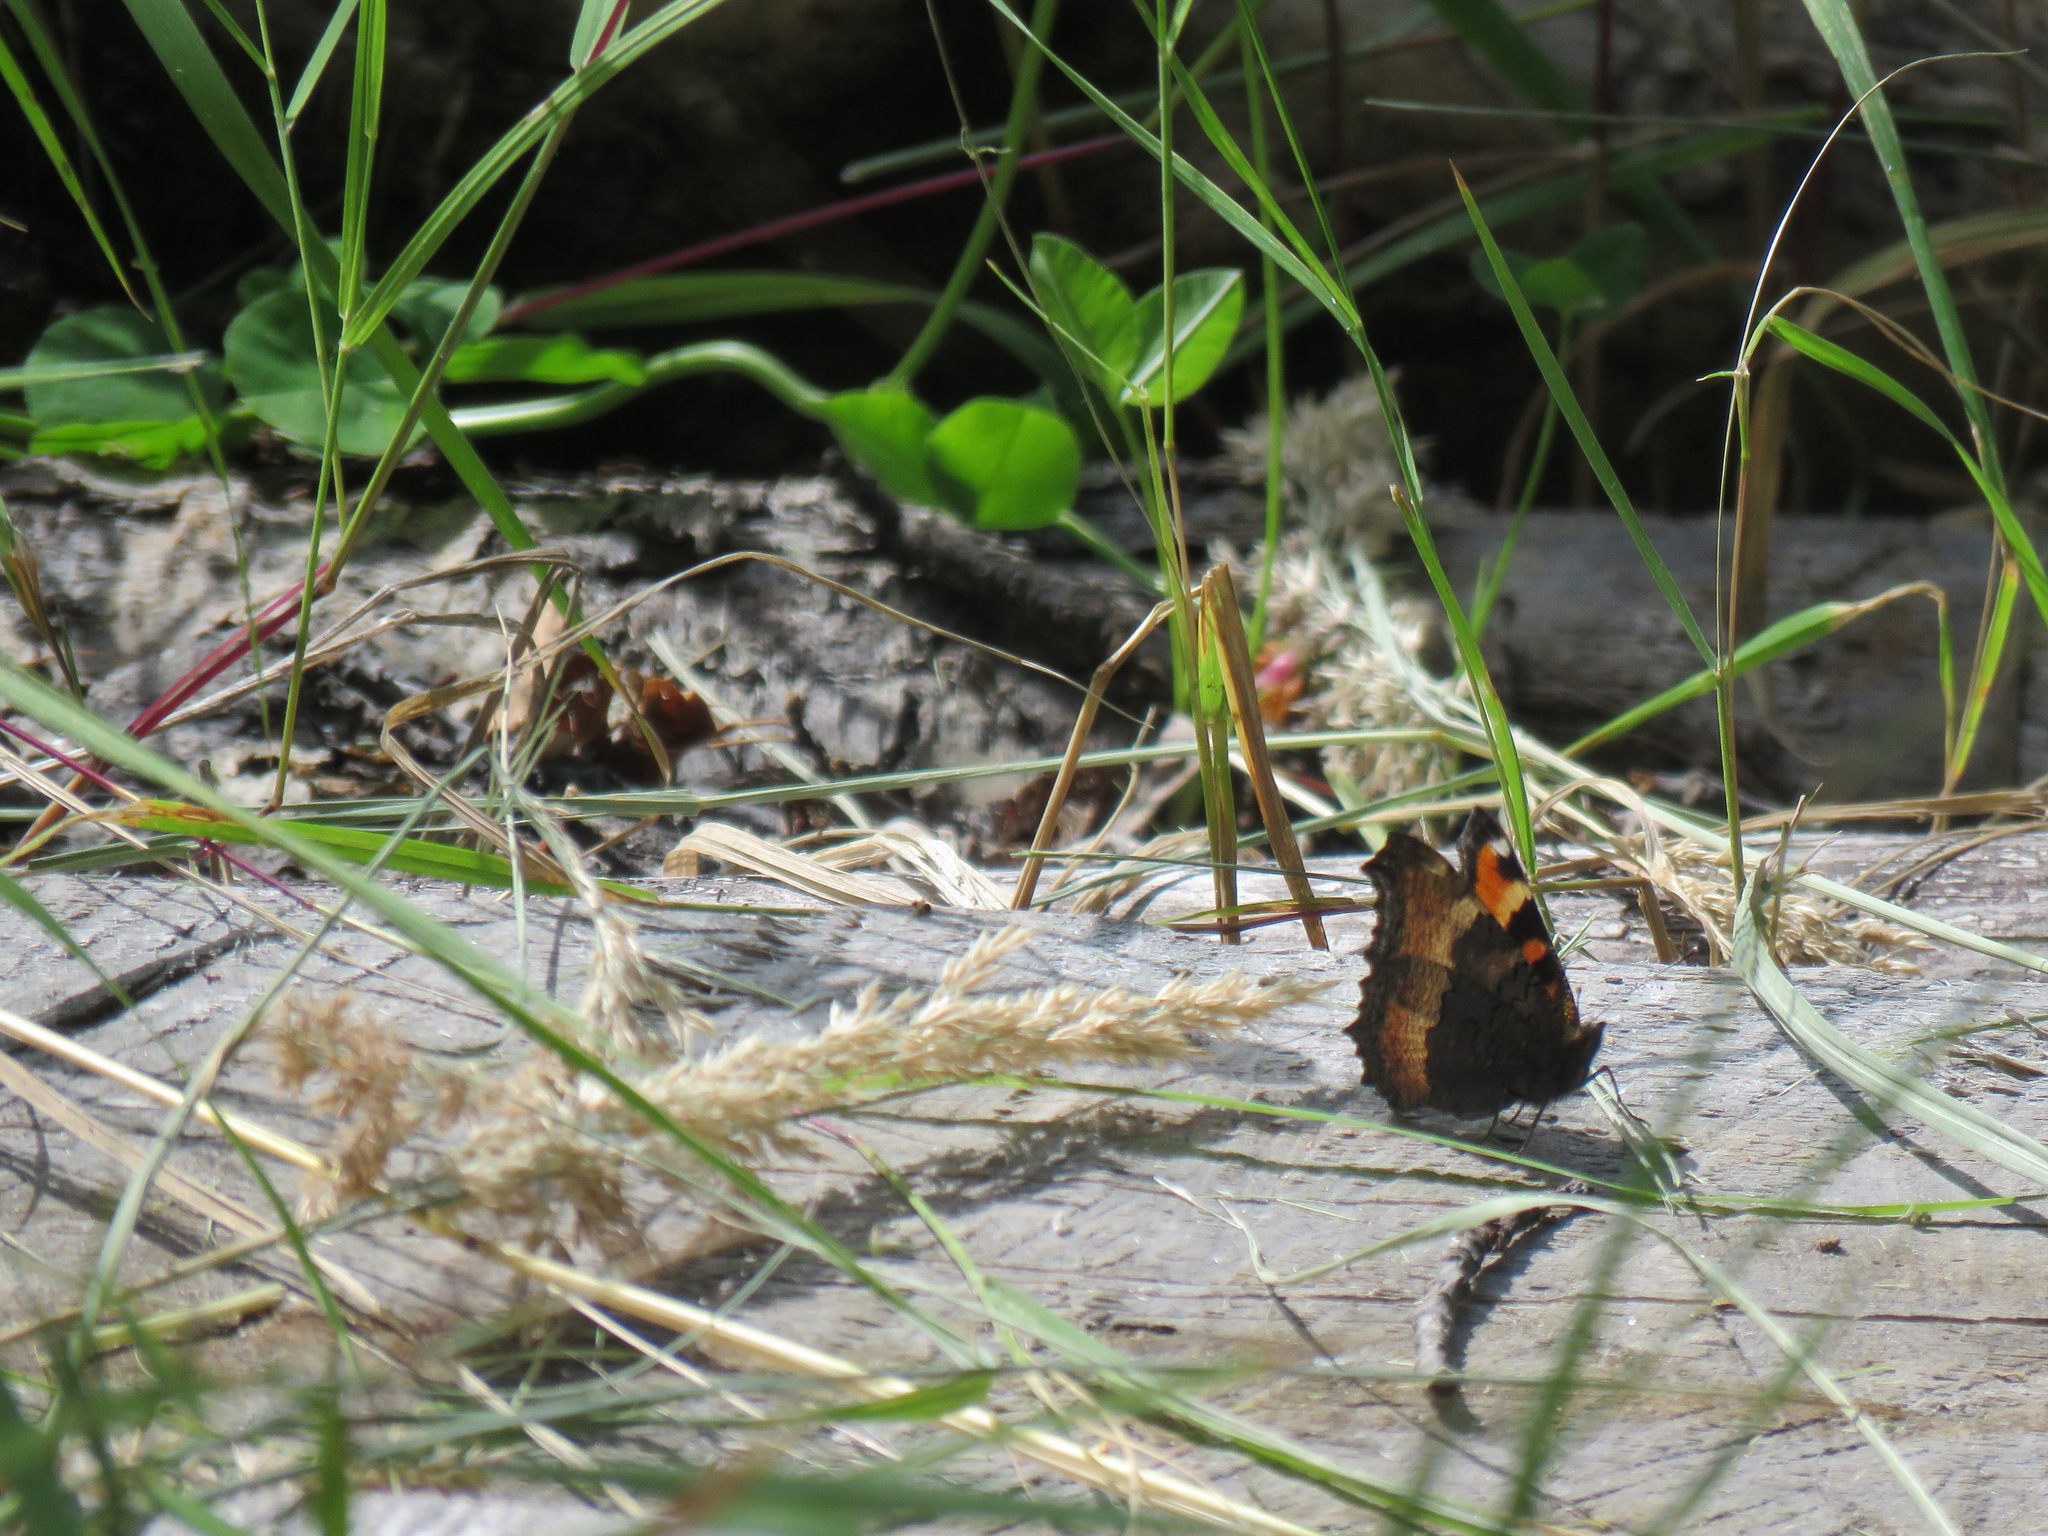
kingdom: Animalia
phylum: Arthropoda
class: Insecta
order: Lepidoptera
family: Nymphalidae
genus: Aglais
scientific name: Aglais milberti
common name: Milbert's tortoiseshell
